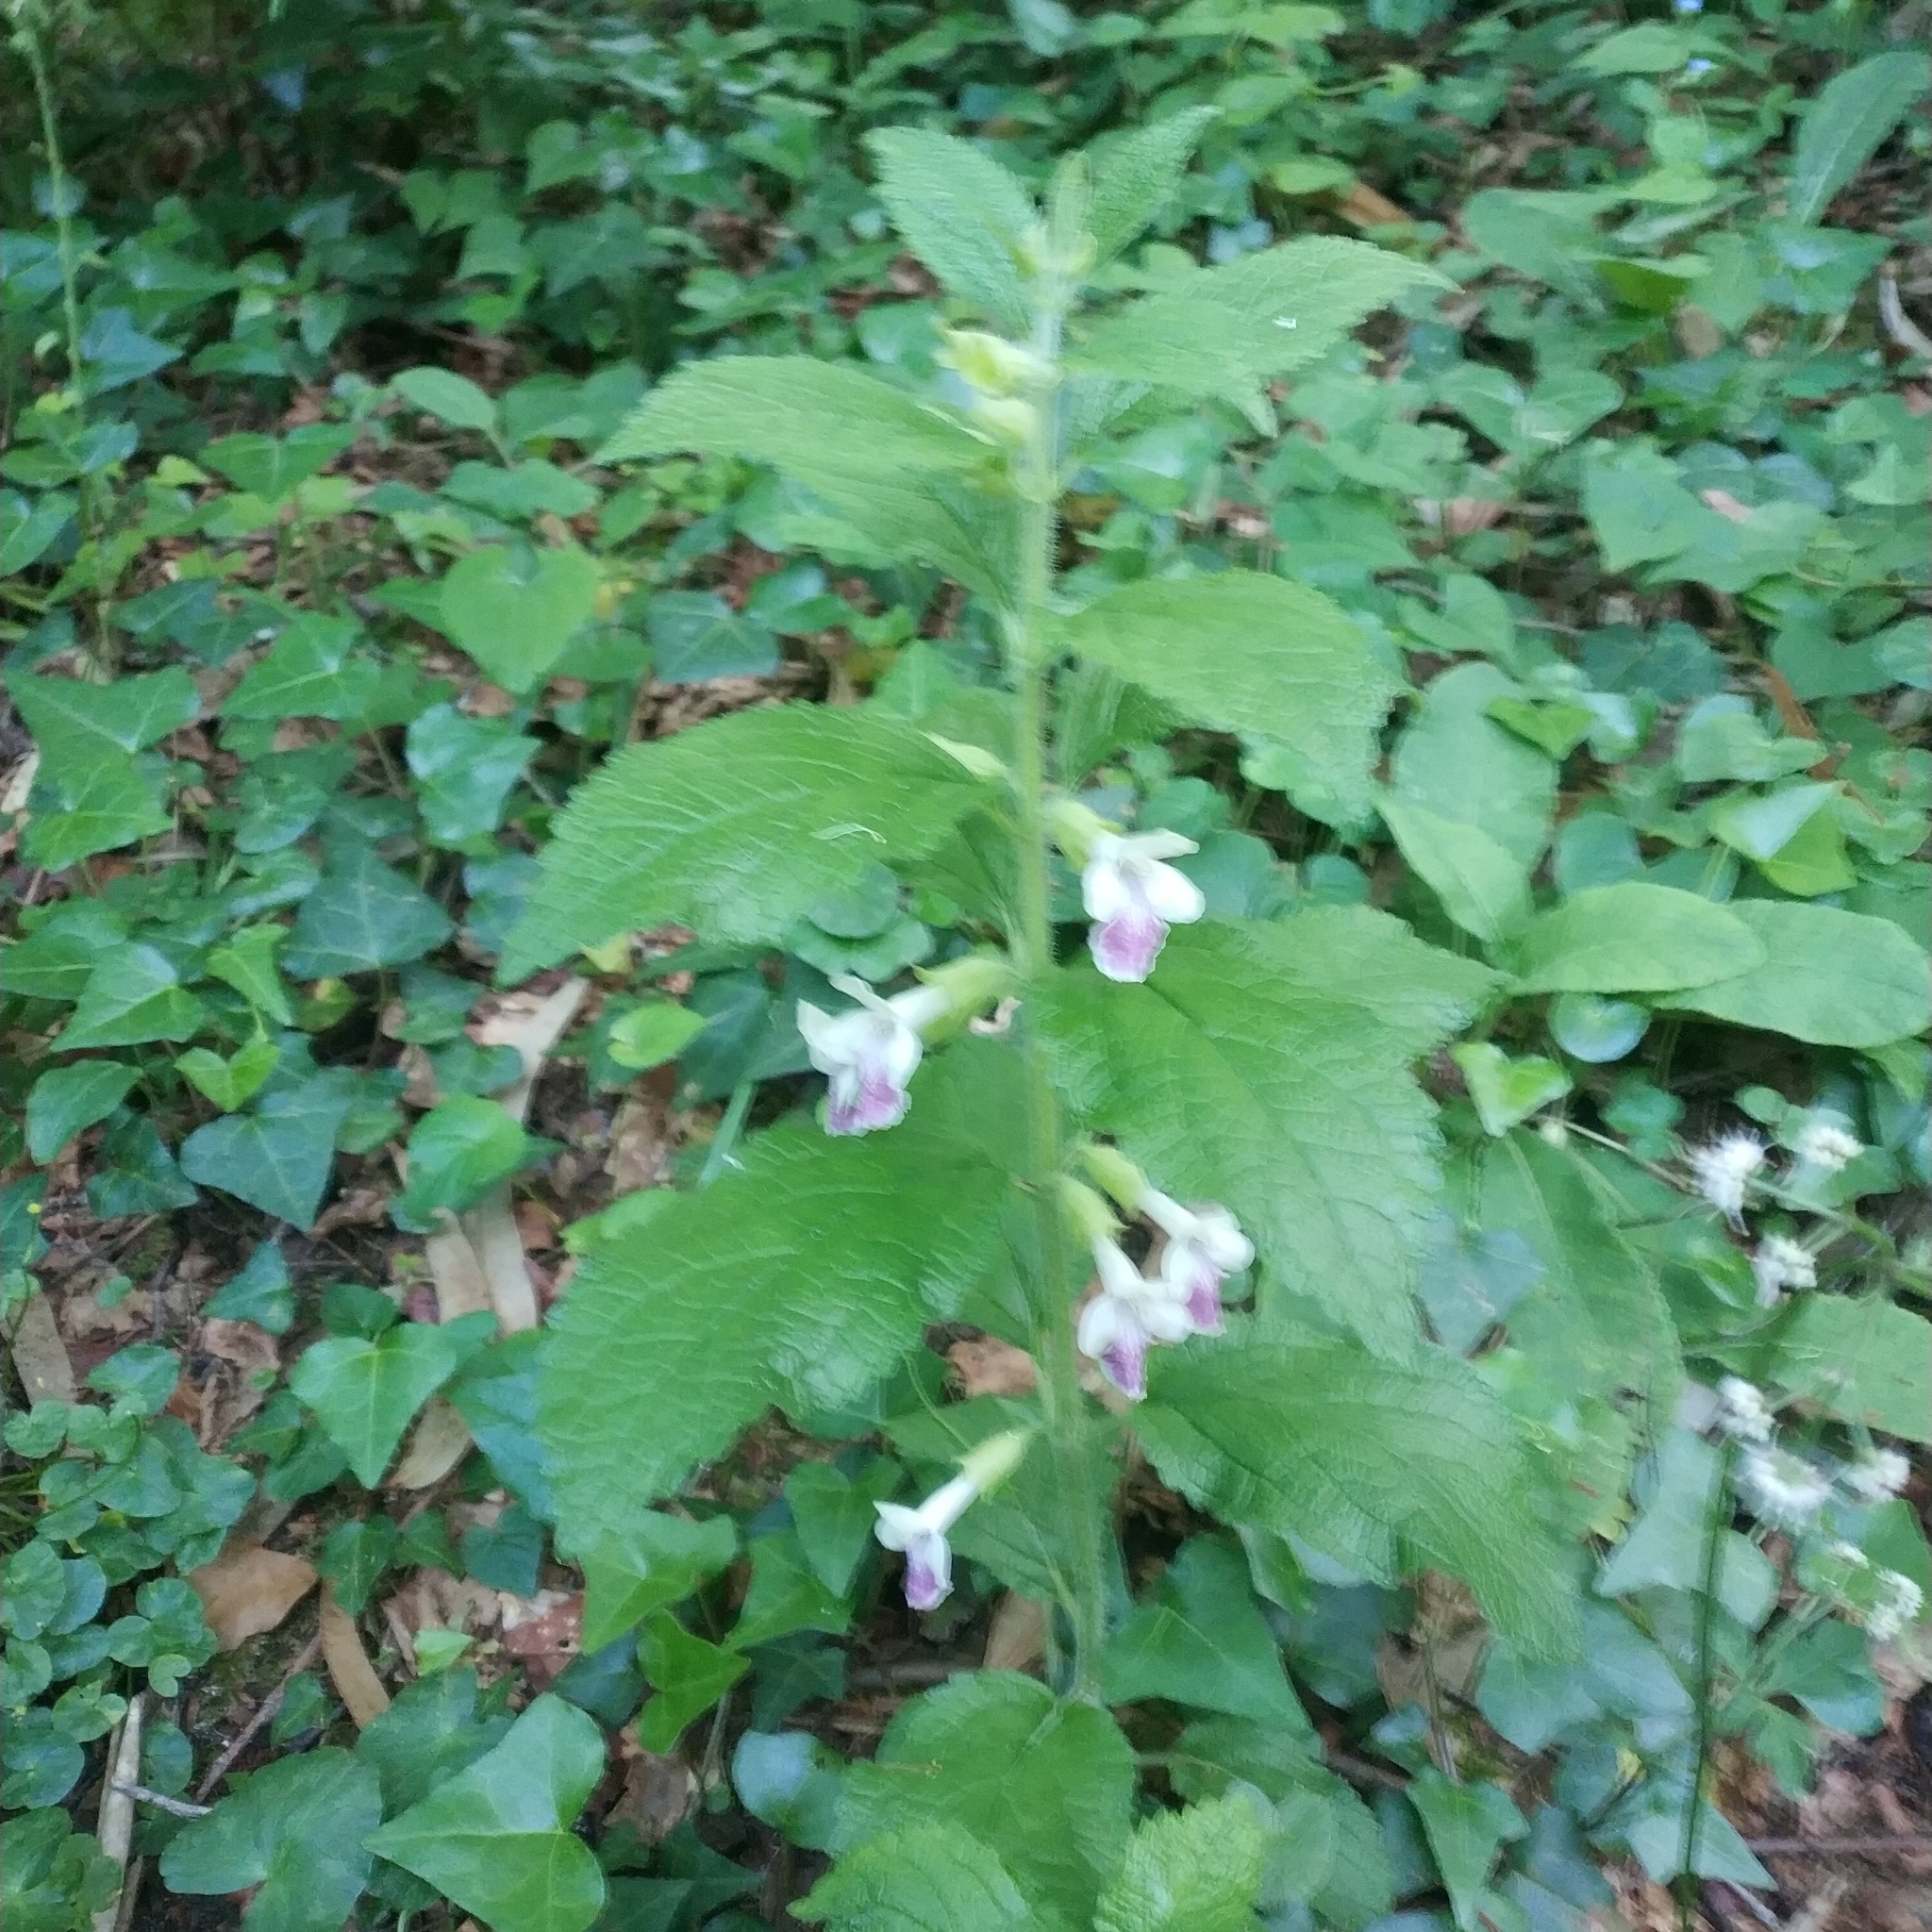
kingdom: Plantae
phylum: Tracheophyta
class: Magnoliopsida
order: Lamiales
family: Lamiaceae
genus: Melittis
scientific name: Melittis melissophyllum
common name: Bastard balm
